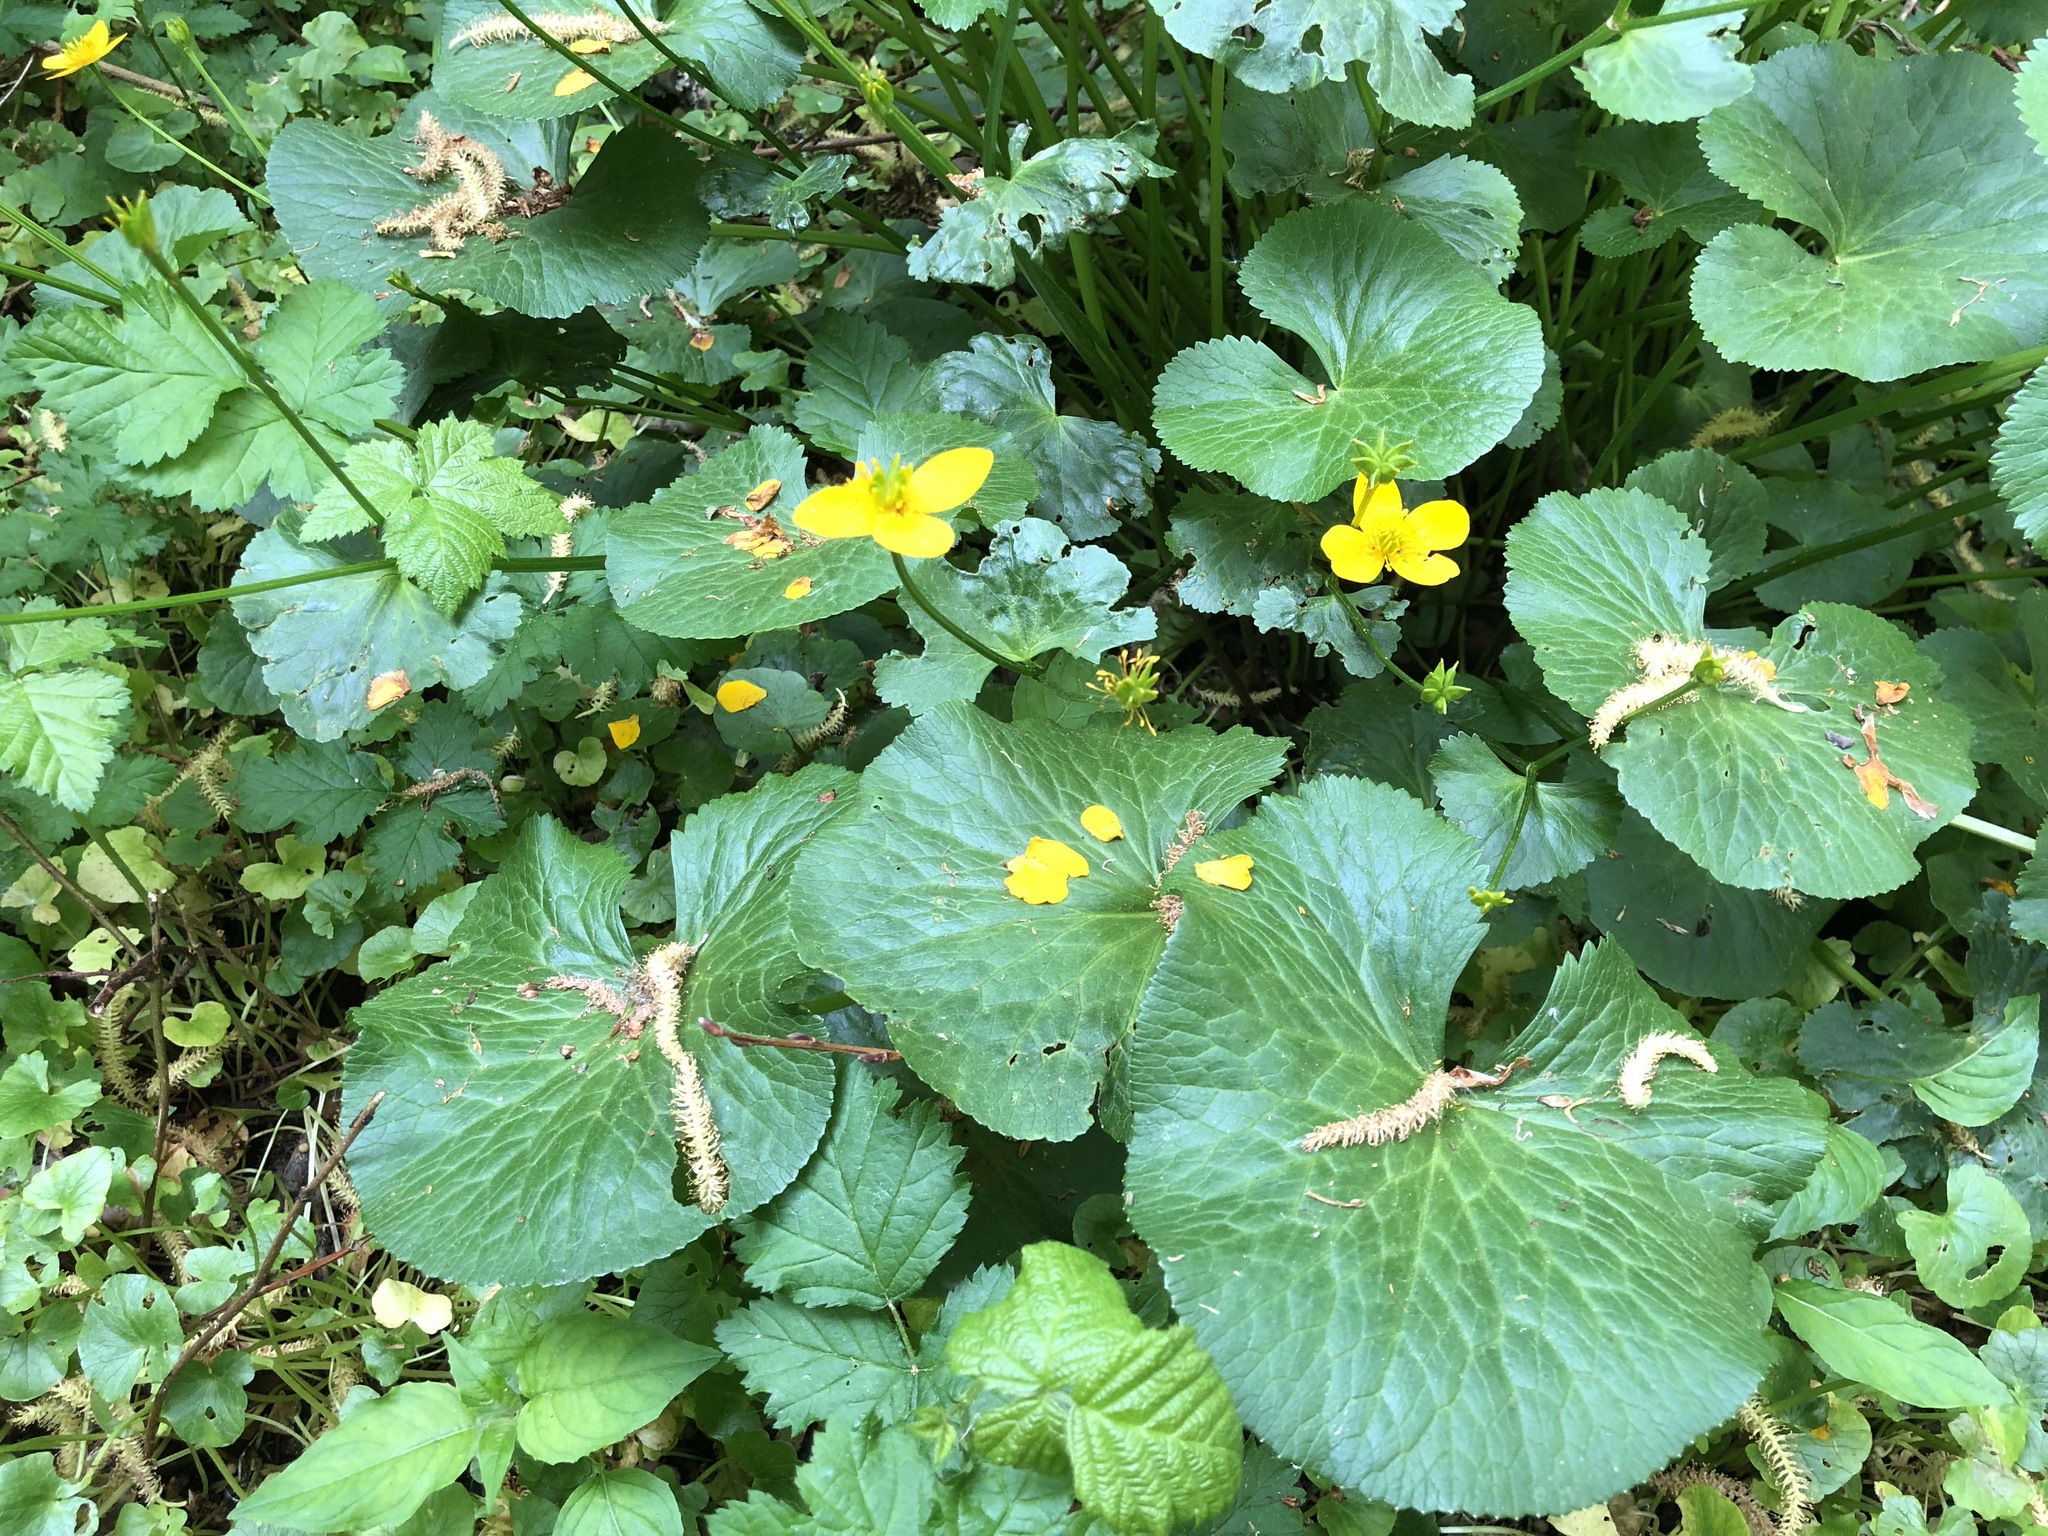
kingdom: Plantae
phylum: Tracheophyta
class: Magnoliopsida
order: Ranunculales
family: Ranunculaceae
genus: Caltha
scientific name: Caltha palustris
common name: Marsh marigold
